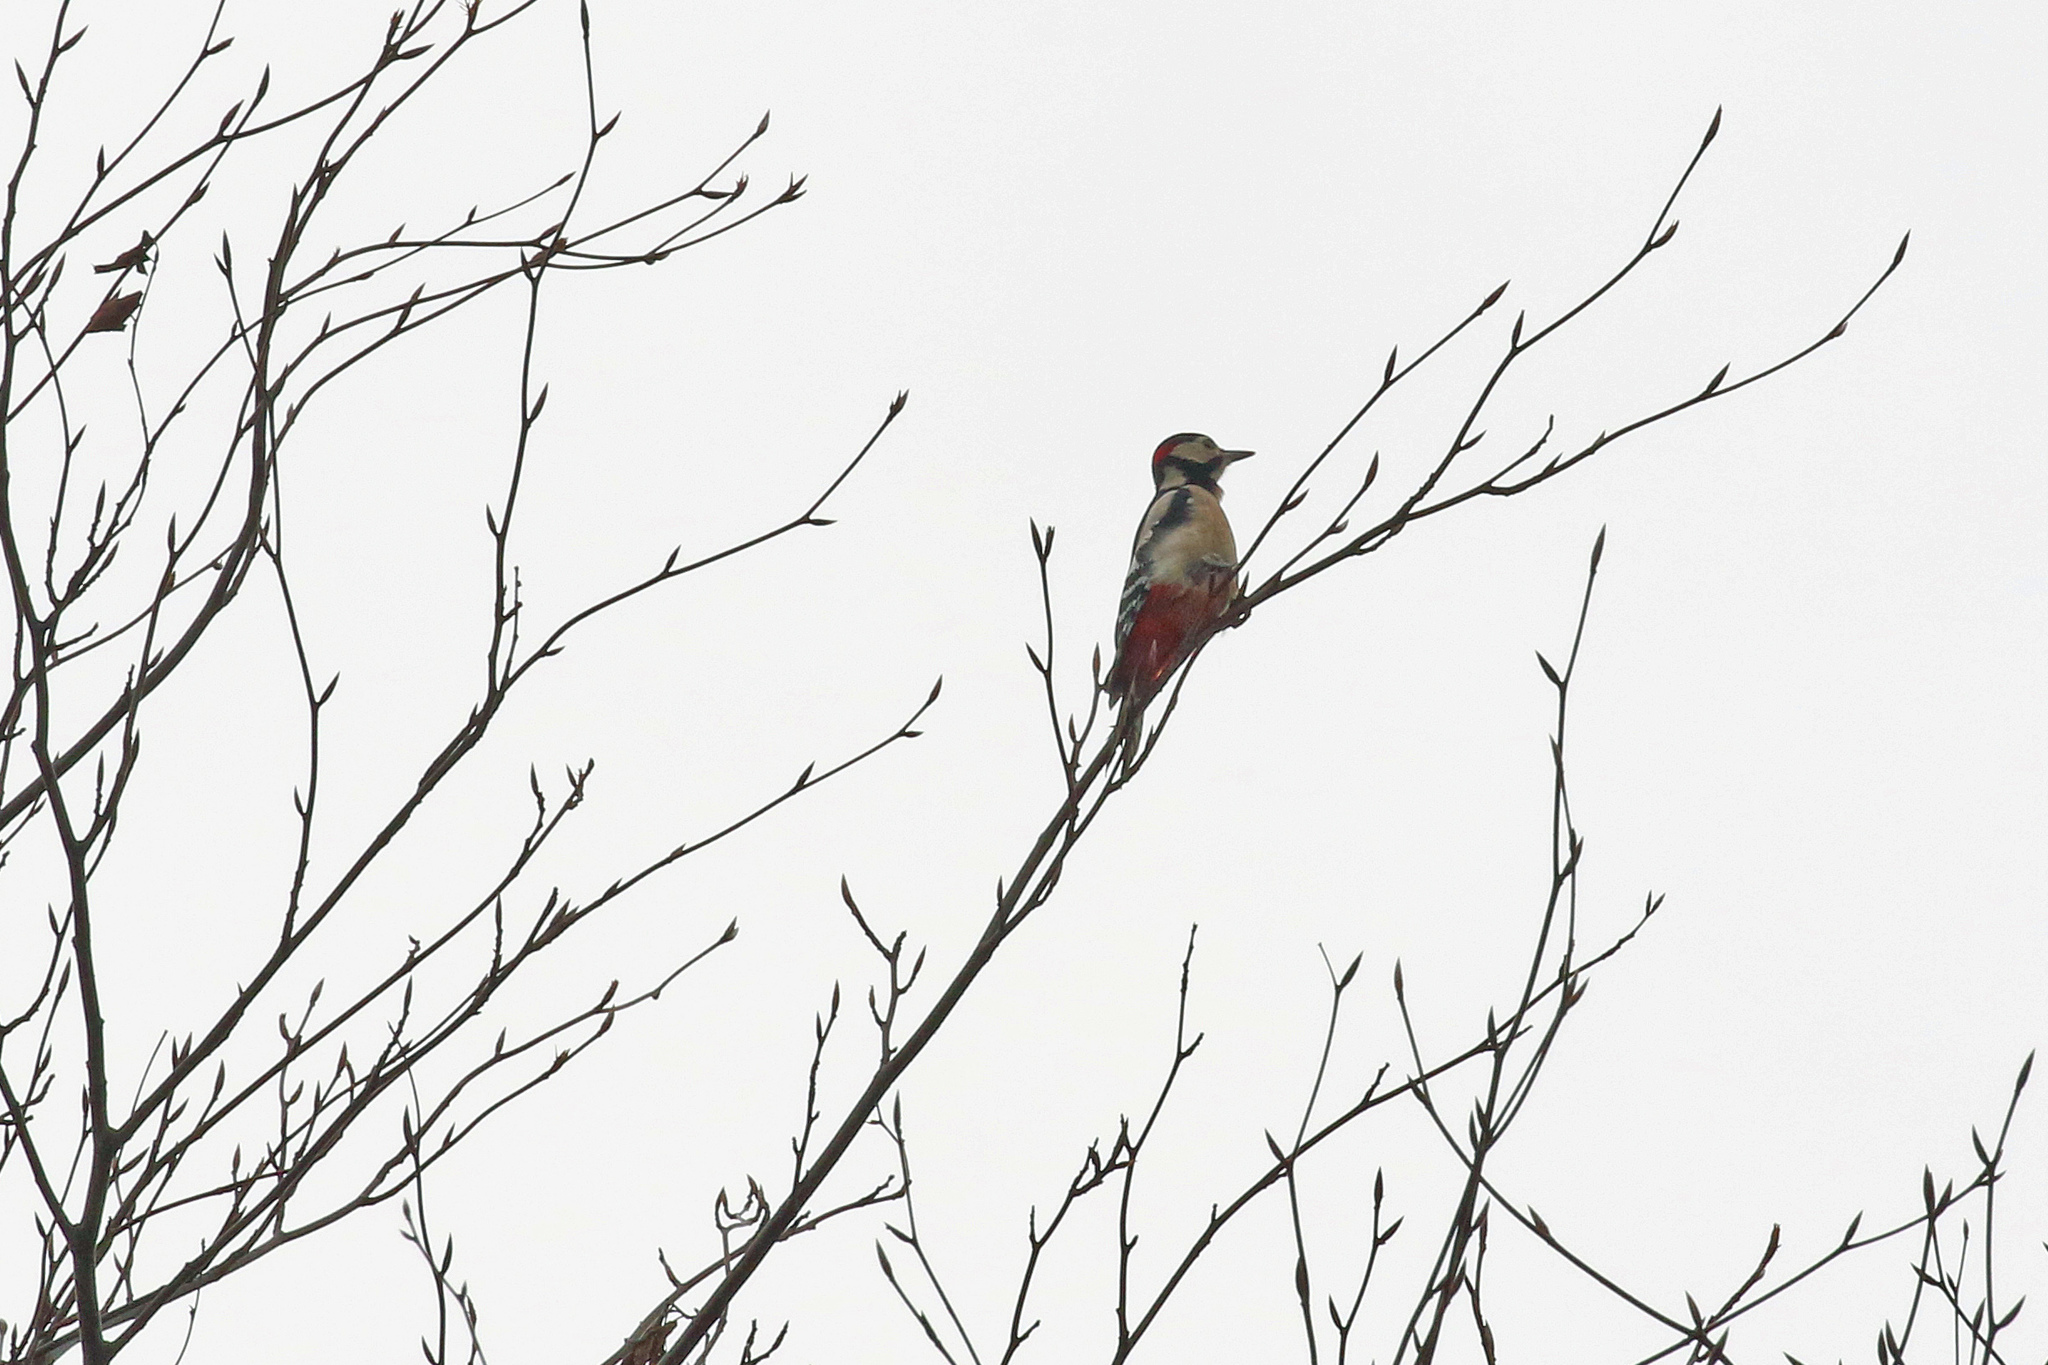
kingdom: Animalia
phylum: Chordata
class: Aves
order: Piciformes
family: Picidae
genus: Dendrocopos
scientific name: Dendrocopos major
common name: Great spotted woodpecker
